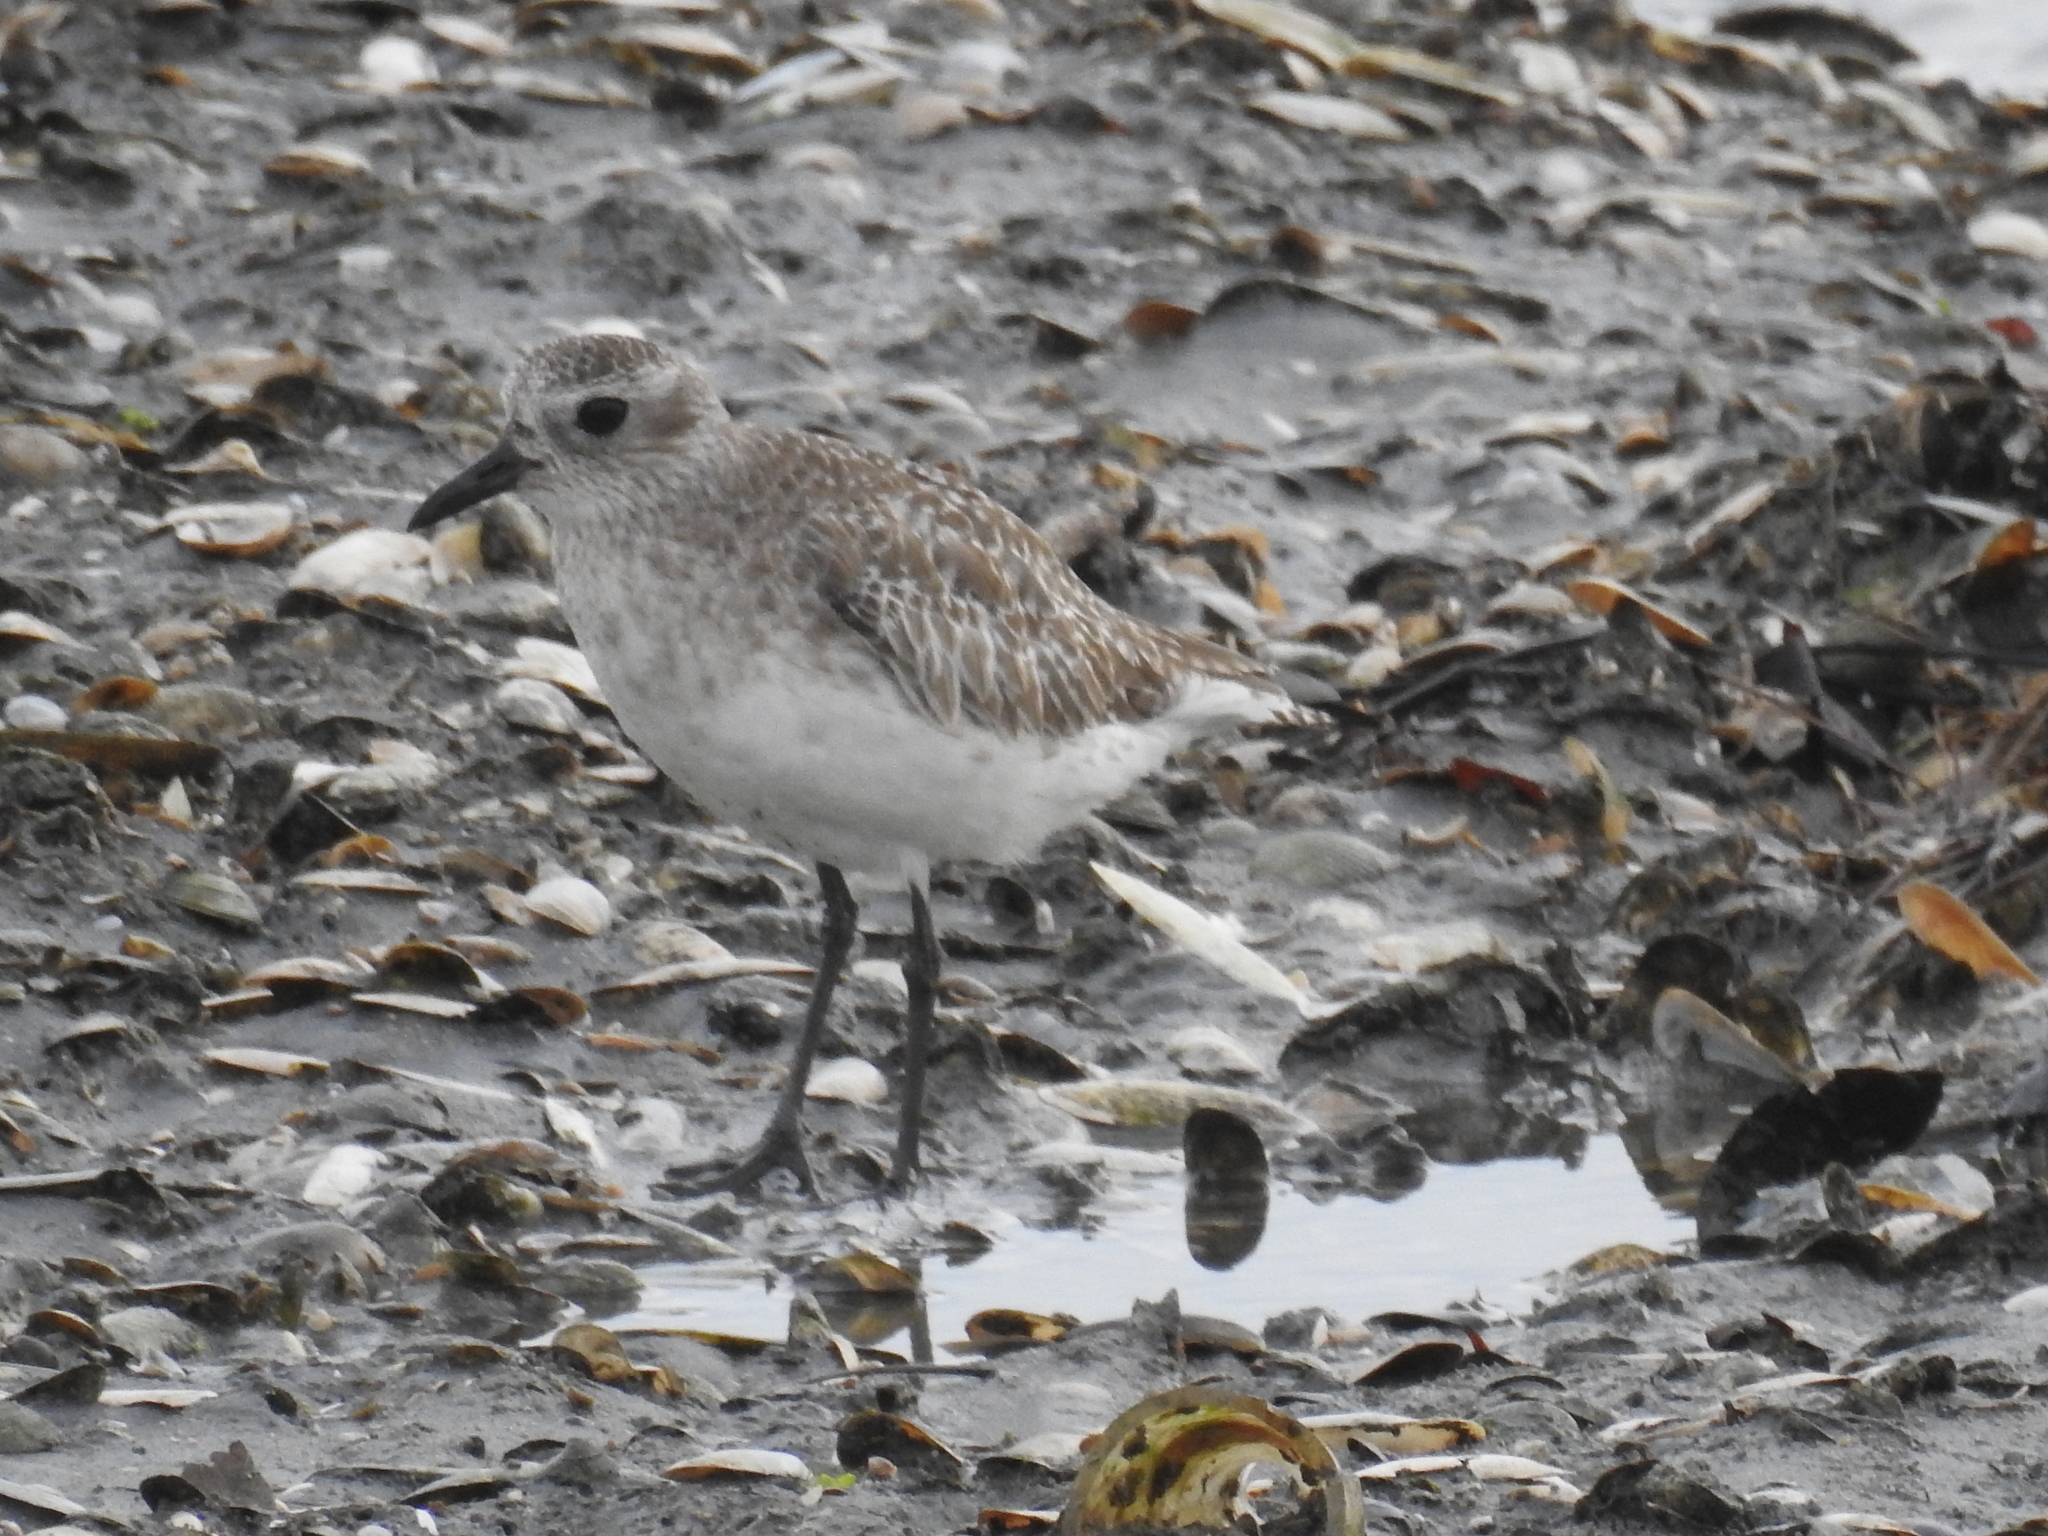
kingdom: Animalia
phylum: Chordata
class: Aves
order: Charadriiformes
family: Charadriidae
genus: Pluvialis
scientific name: Pluvialis squatarola
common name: Grey plover
